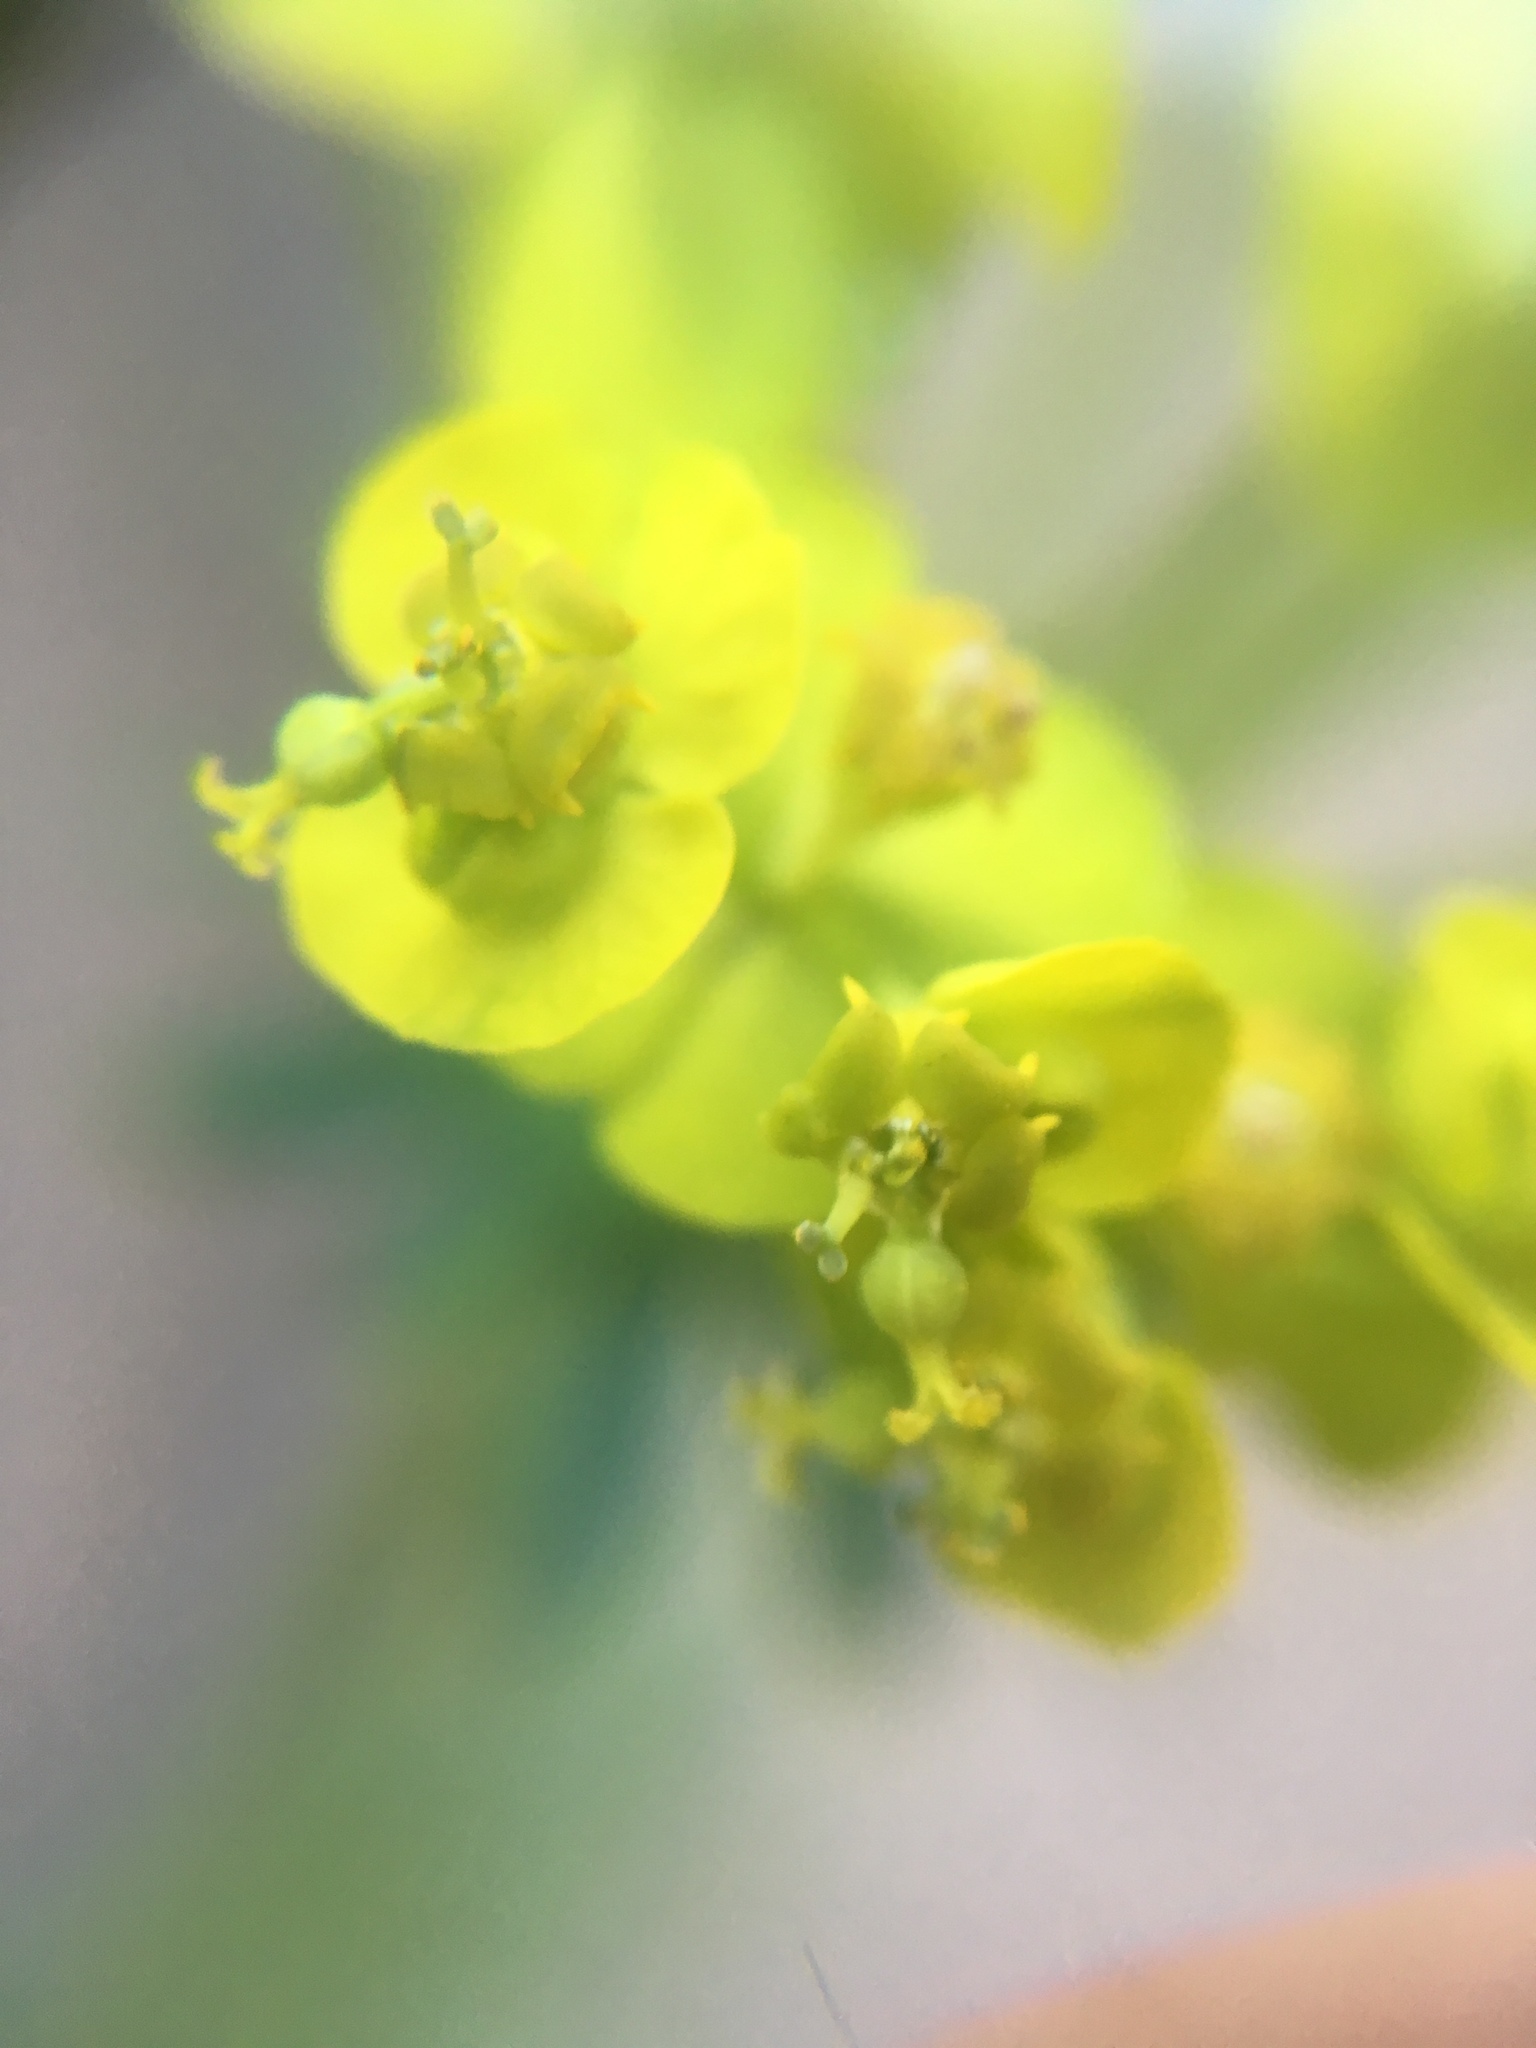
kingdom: Plantae
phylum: Tracheophyta
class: Magnoliopsida
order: Malpighiales
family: Euphorbiaceae
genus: Euphorbia
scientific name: Euphorbia cyparissias
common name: Cypress spurge
